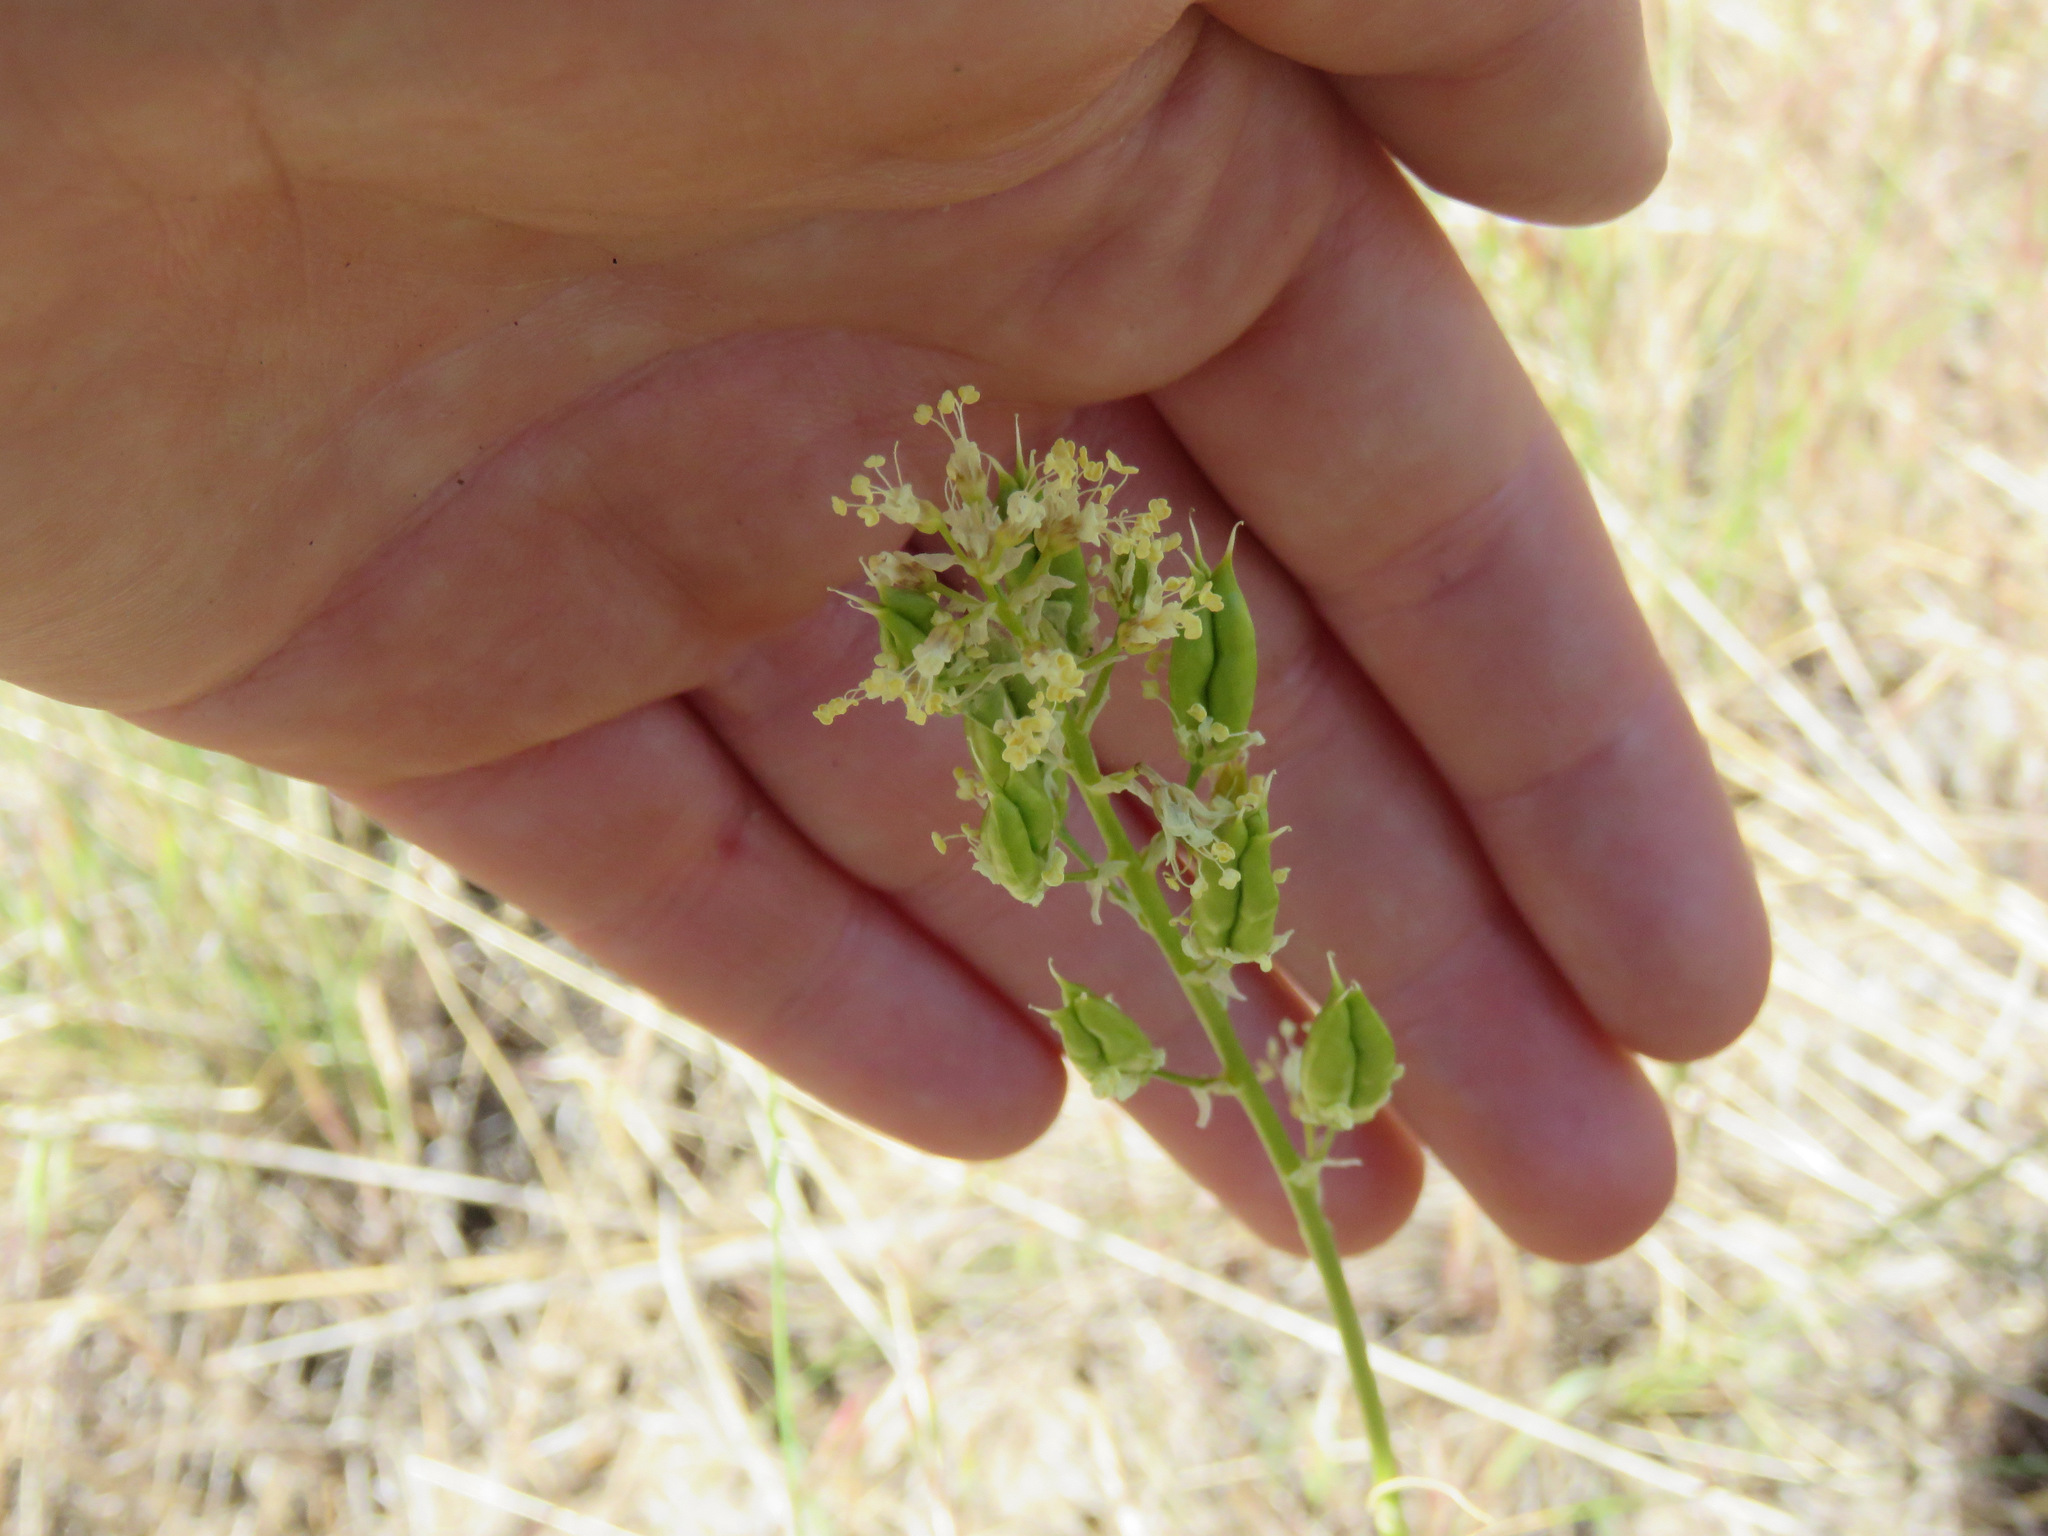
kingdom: Plantae
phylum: Tracheophyta
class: Liliopsida
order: Liliales
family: Melanthiaceae
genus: Toxicoscordion
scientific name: Toxicoscordion venenosum
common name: Meadow death camas
